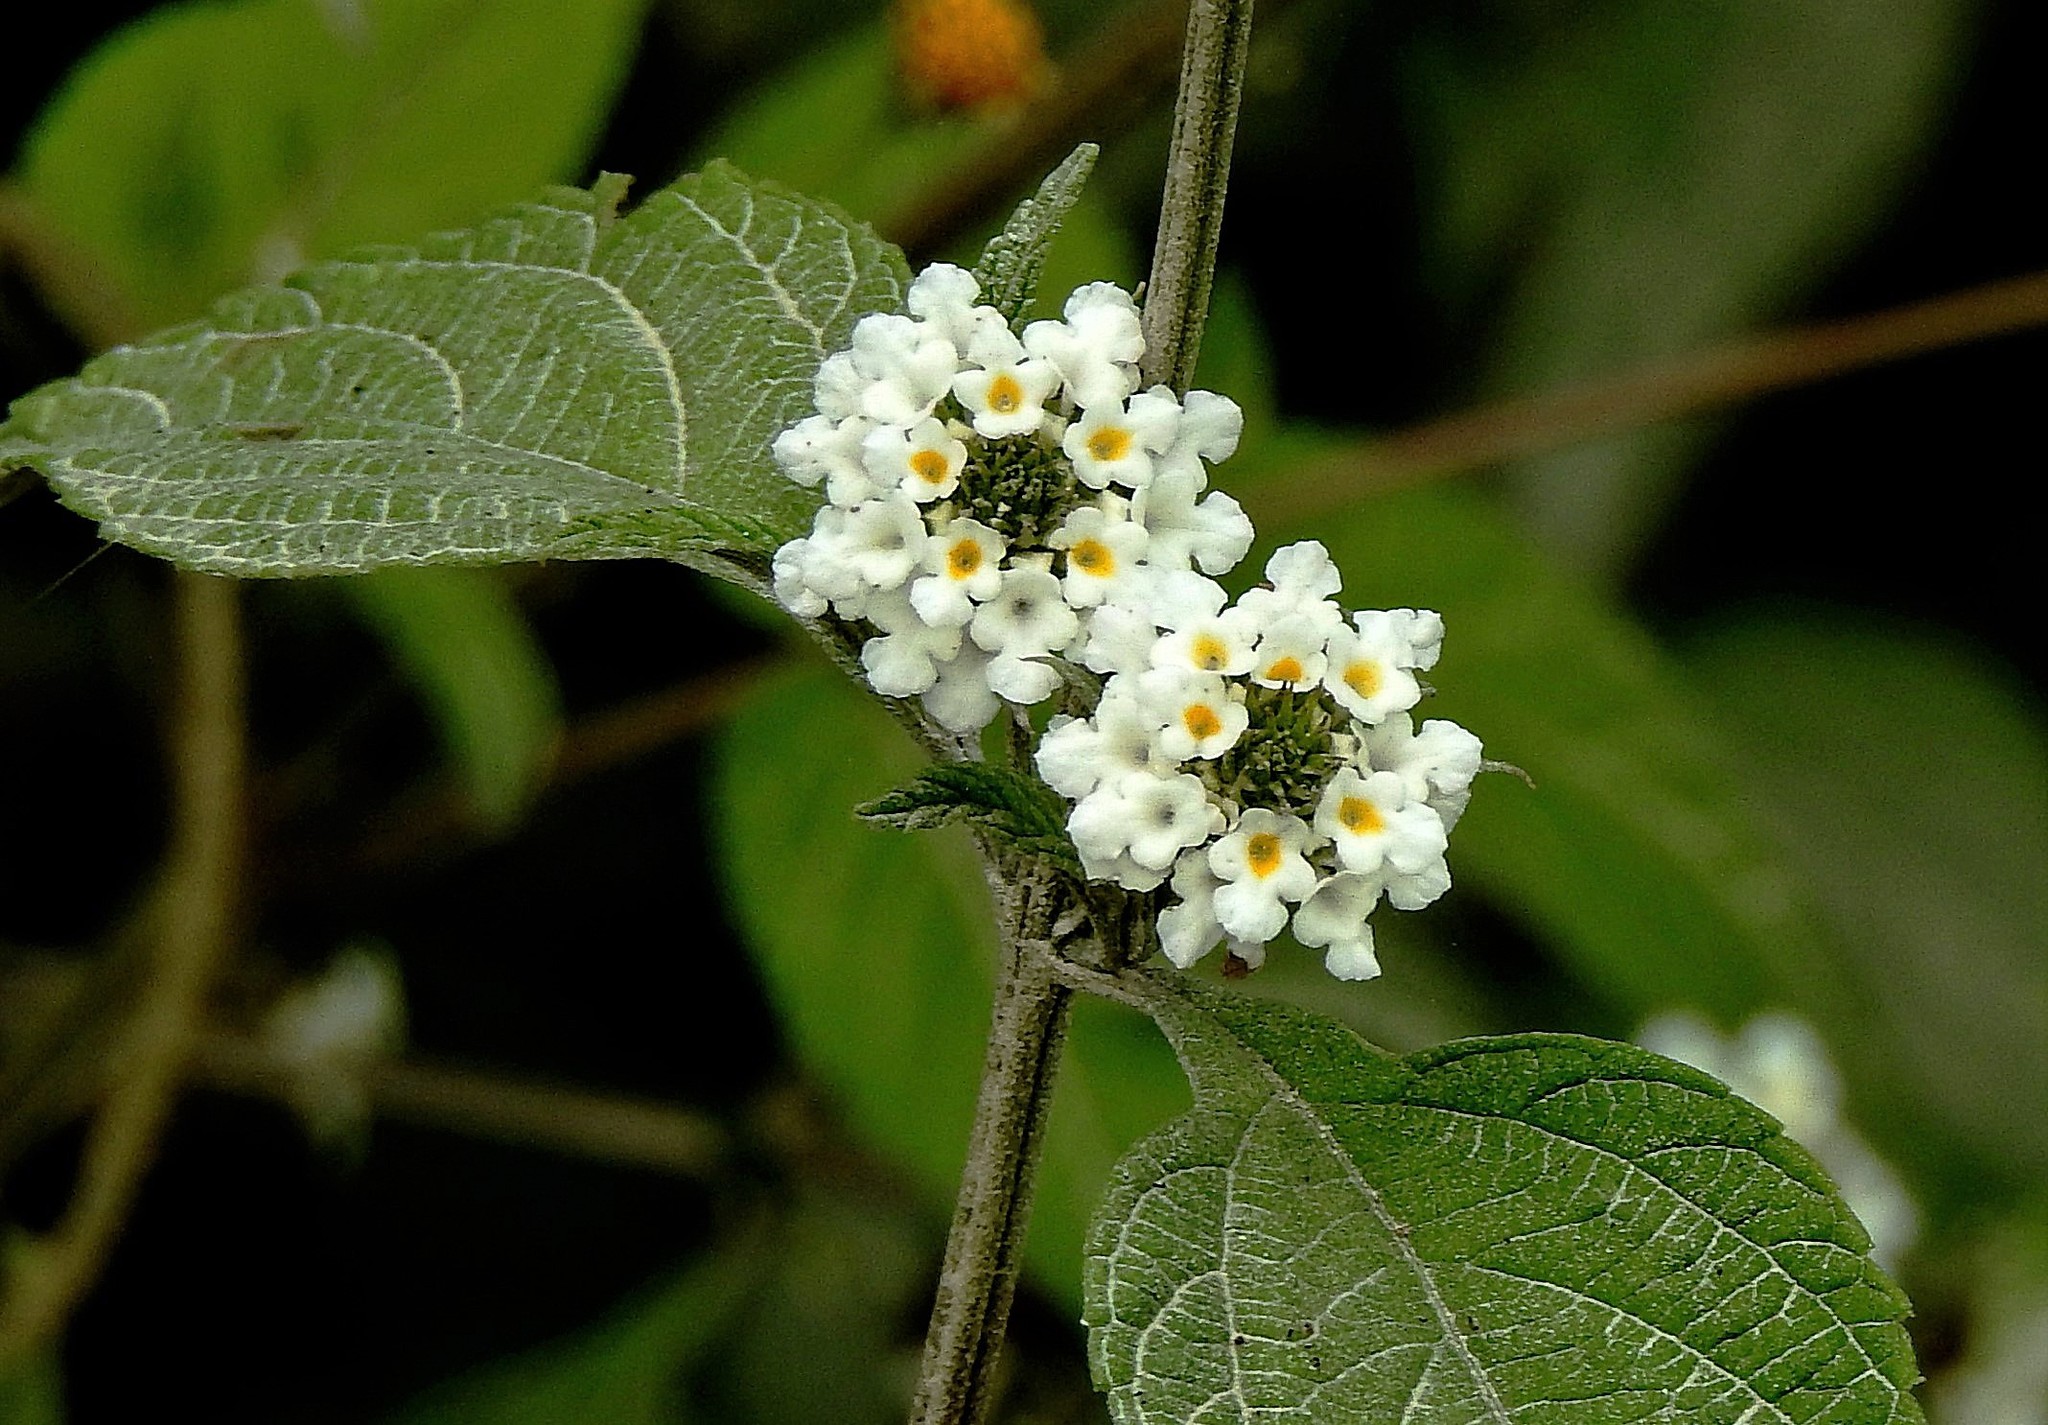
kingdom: Plantae
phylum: Tracheophyta
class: Magnoliopsida
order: Lamiales
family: Verbenaceae
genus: Lantana
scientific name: Lantana canescens
